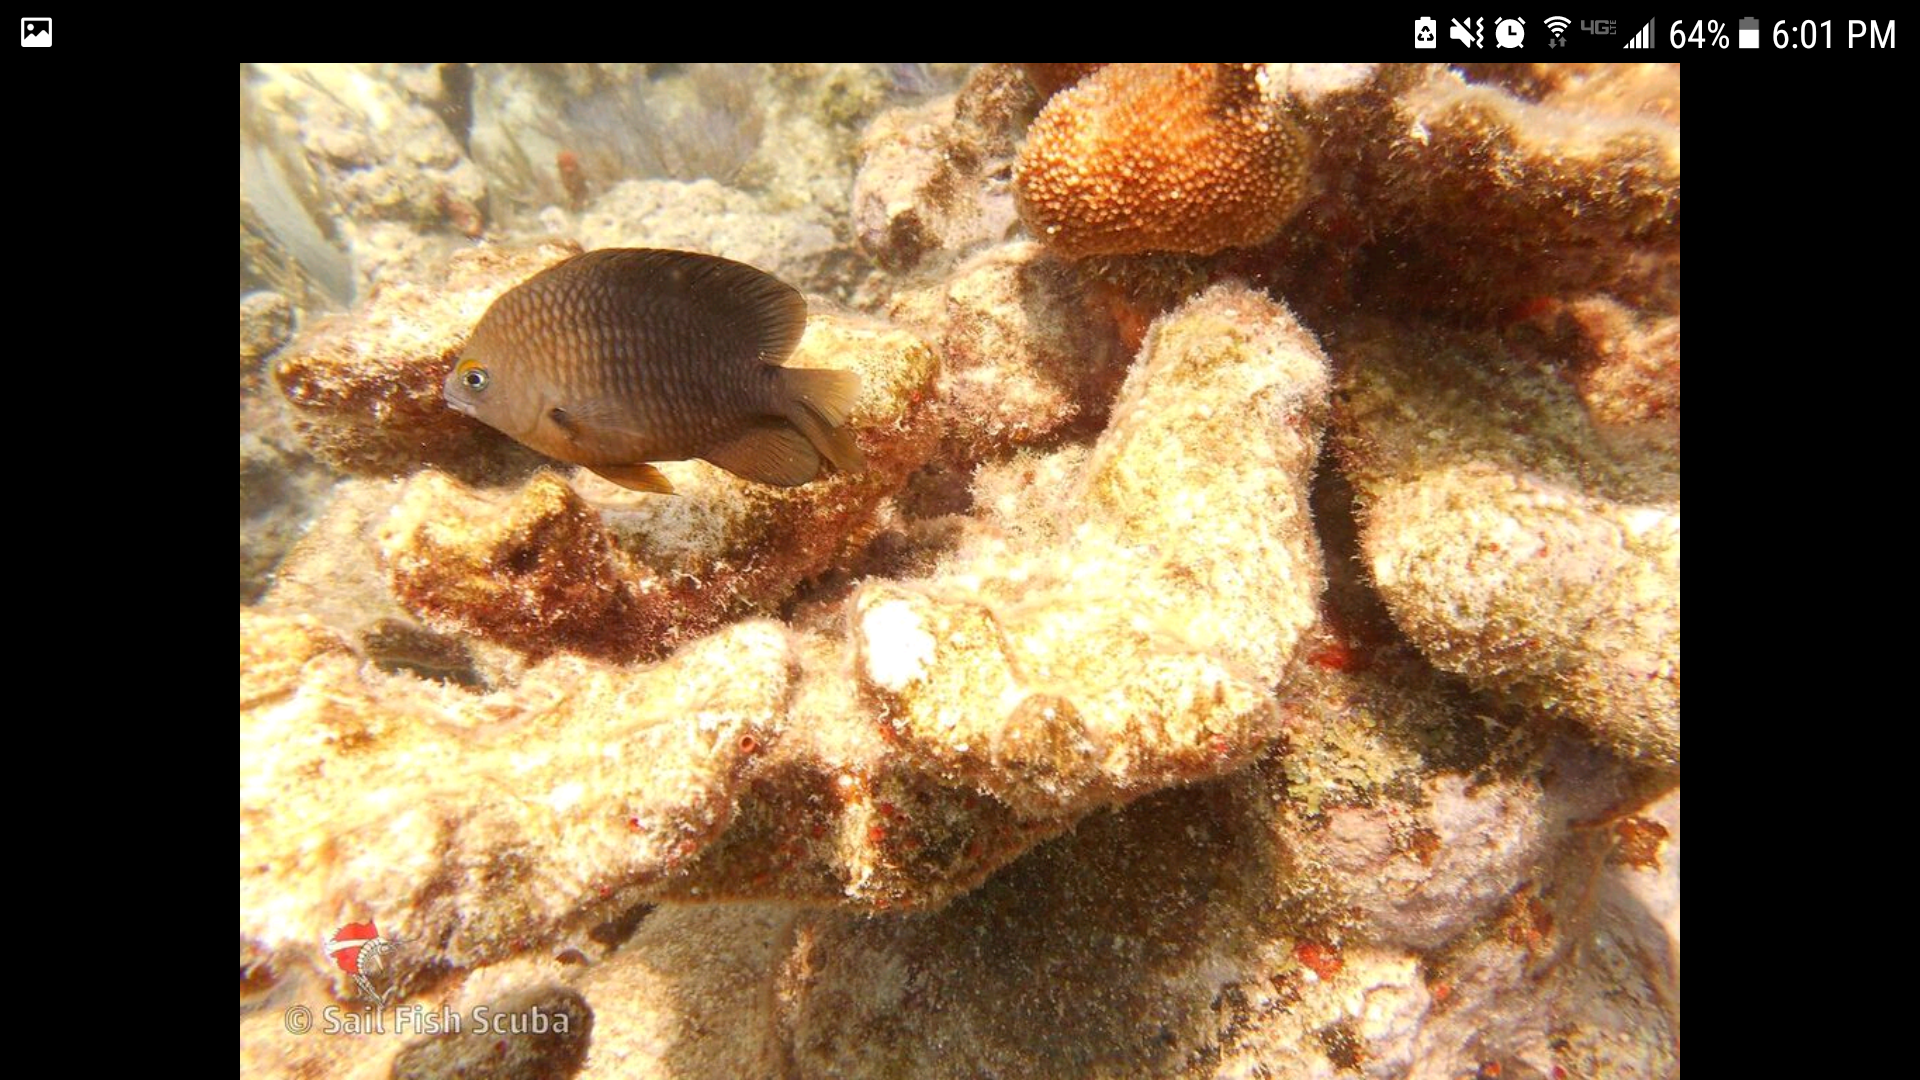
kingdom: Animalia
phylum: Chordata
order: Perciformes
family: Pomacentridae
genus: Stegastes
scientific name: Stegastes planifrons
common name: Threespot damselfish
